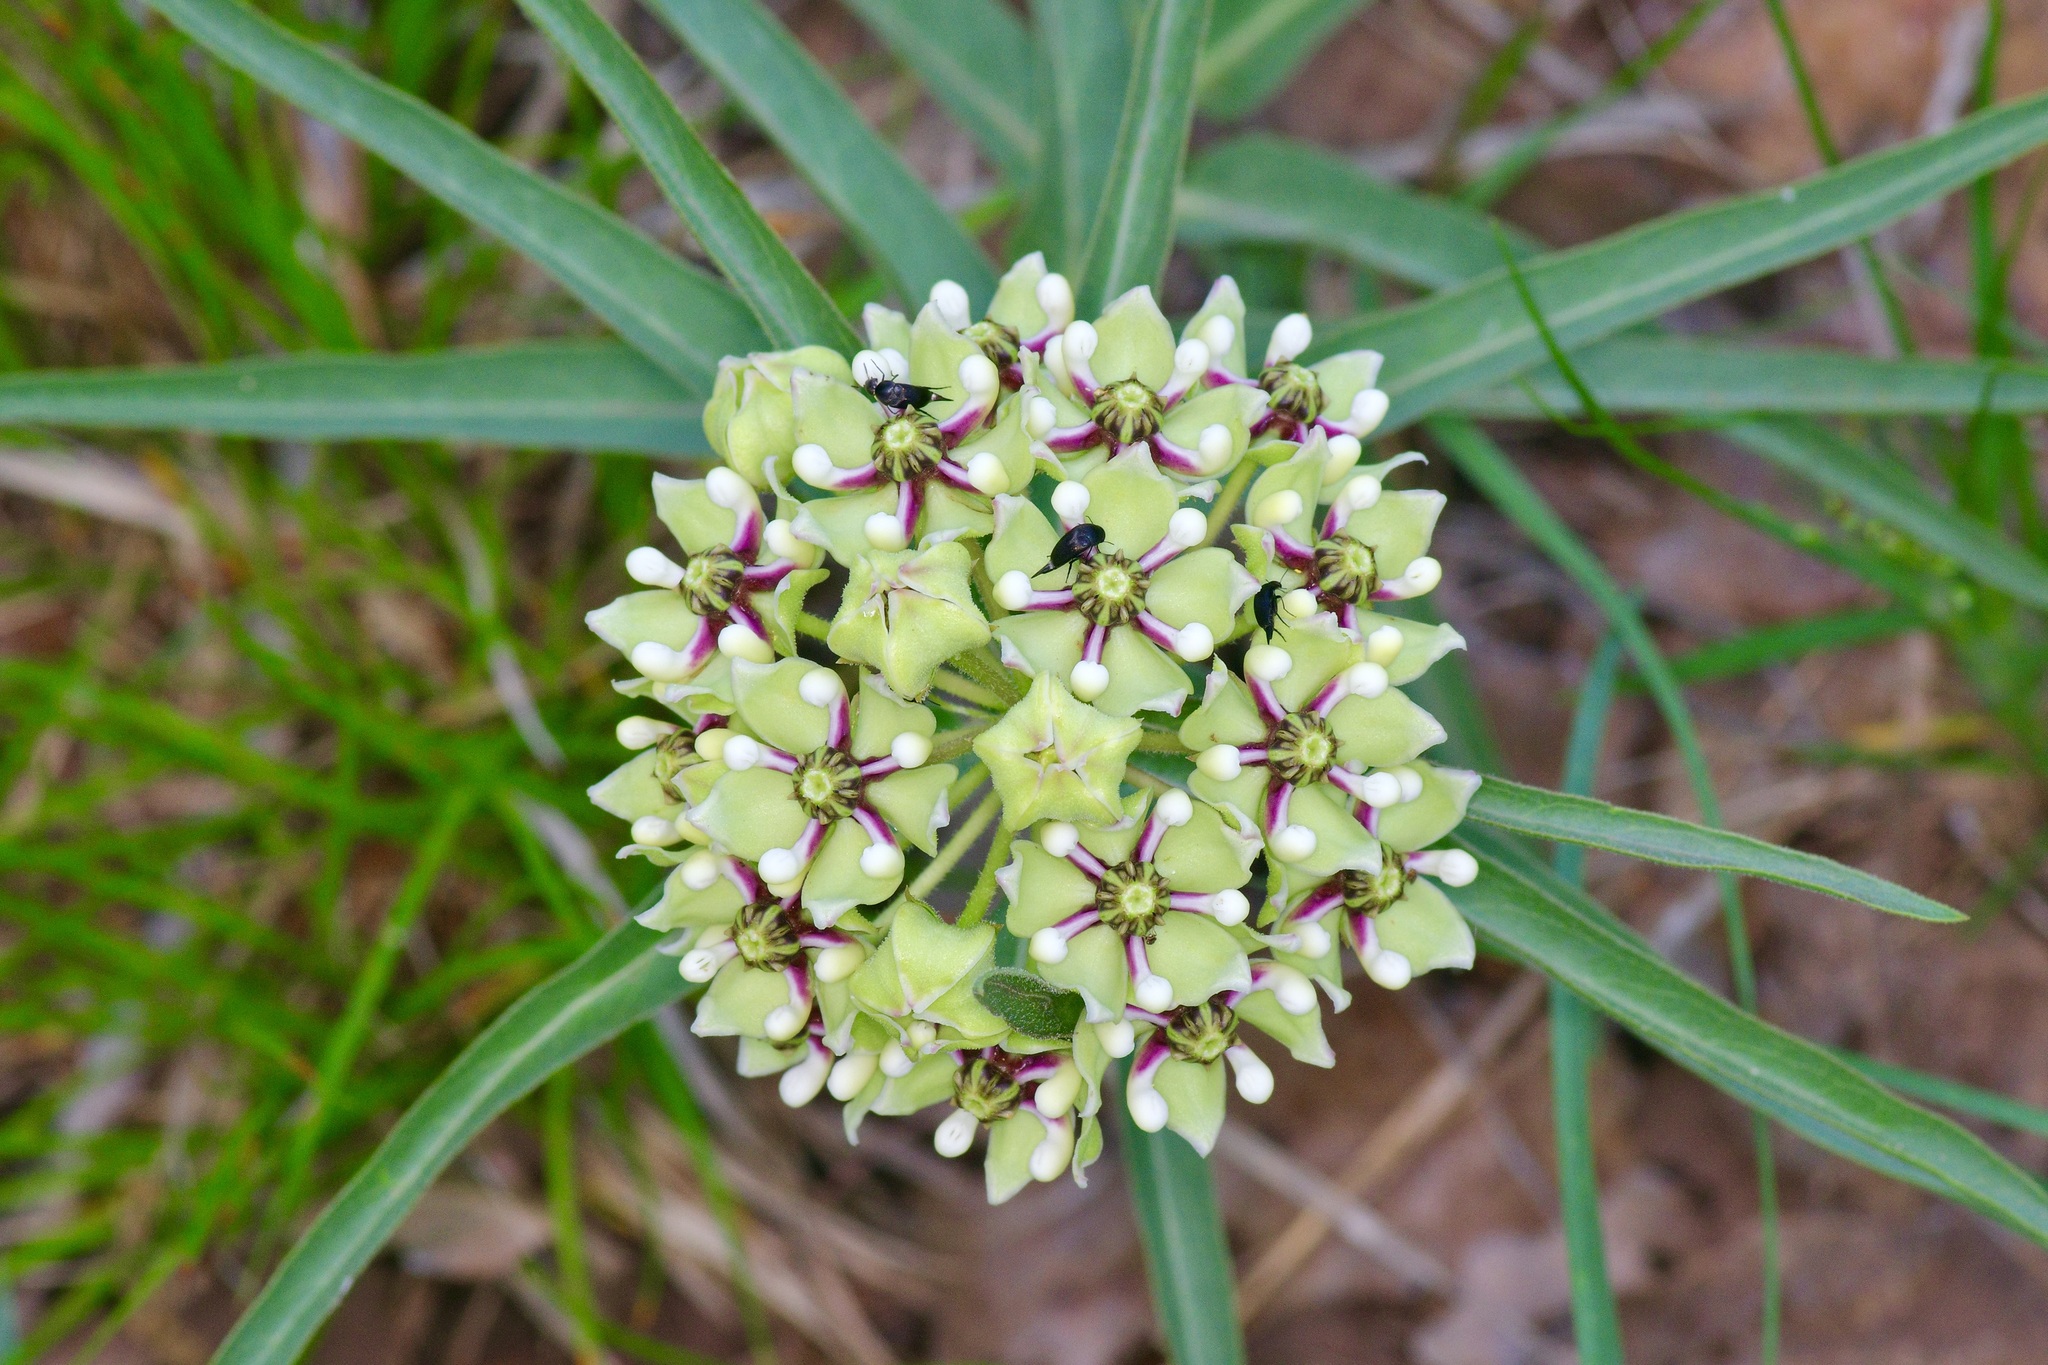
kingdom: Plantae
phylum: Tracheophyta
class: Magnoliopsida
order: Gentianales
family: Apocynaceae
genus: Asclepias
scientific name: Asclepias asperula
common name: Antelope horns
